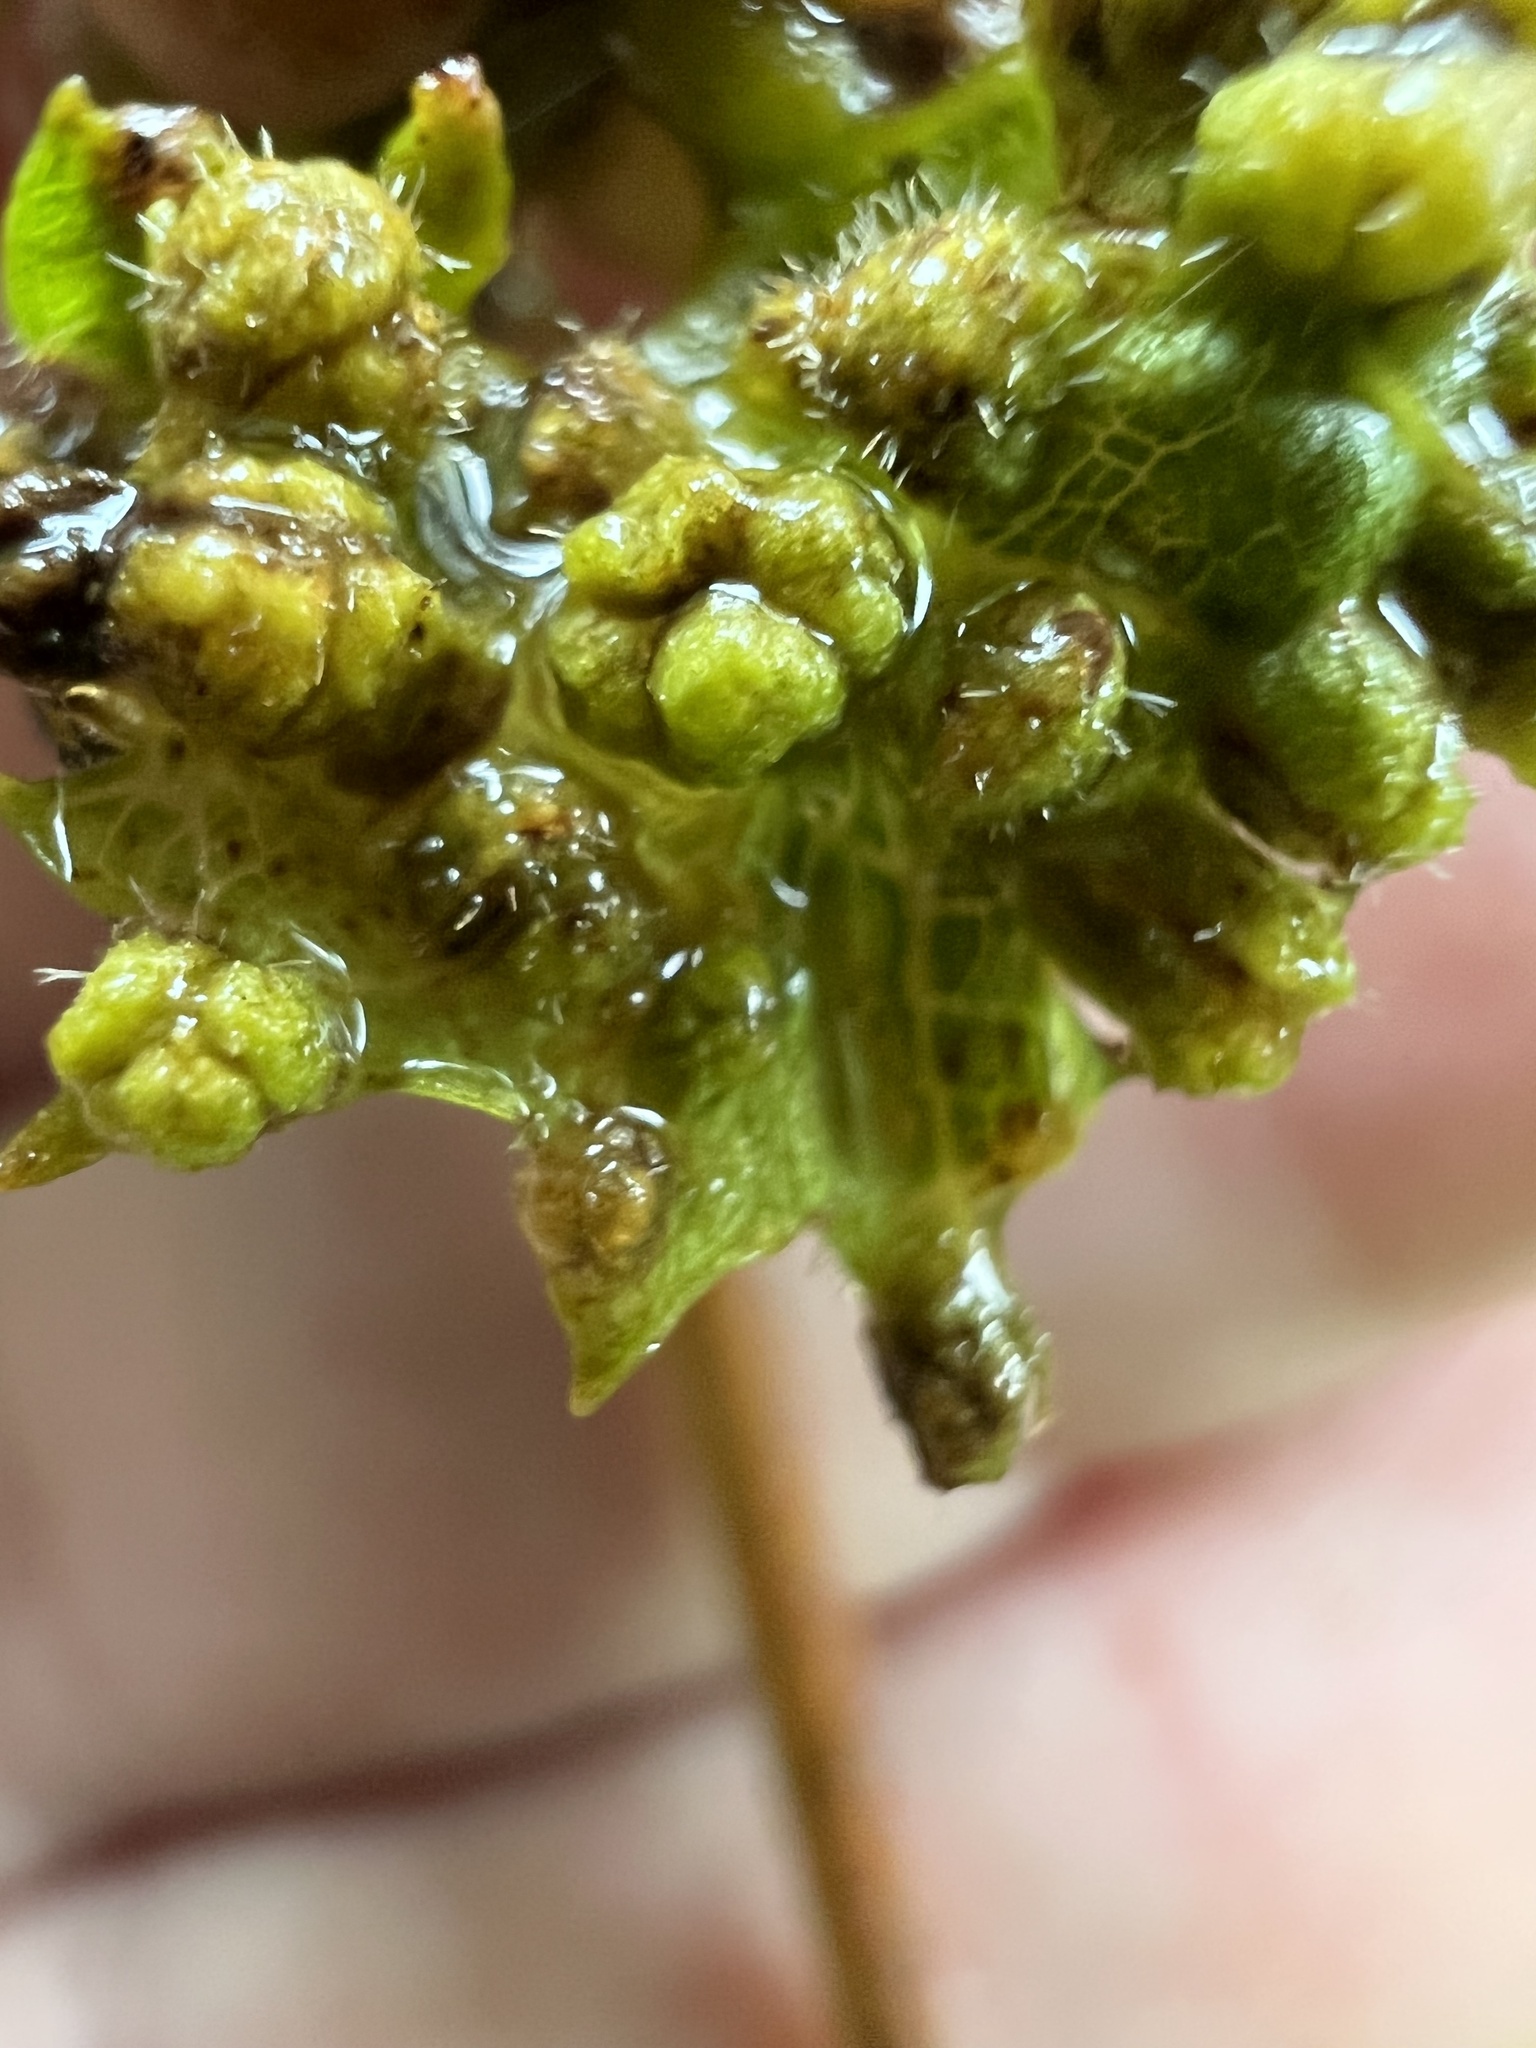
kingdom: Animalia
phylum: Arthropoda
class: Insecta
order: Hemiptera
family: Phylloxeridae
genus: Daktulosphaira
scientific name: Daktulosphaira vitifoliae
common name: Grape phylloxera
